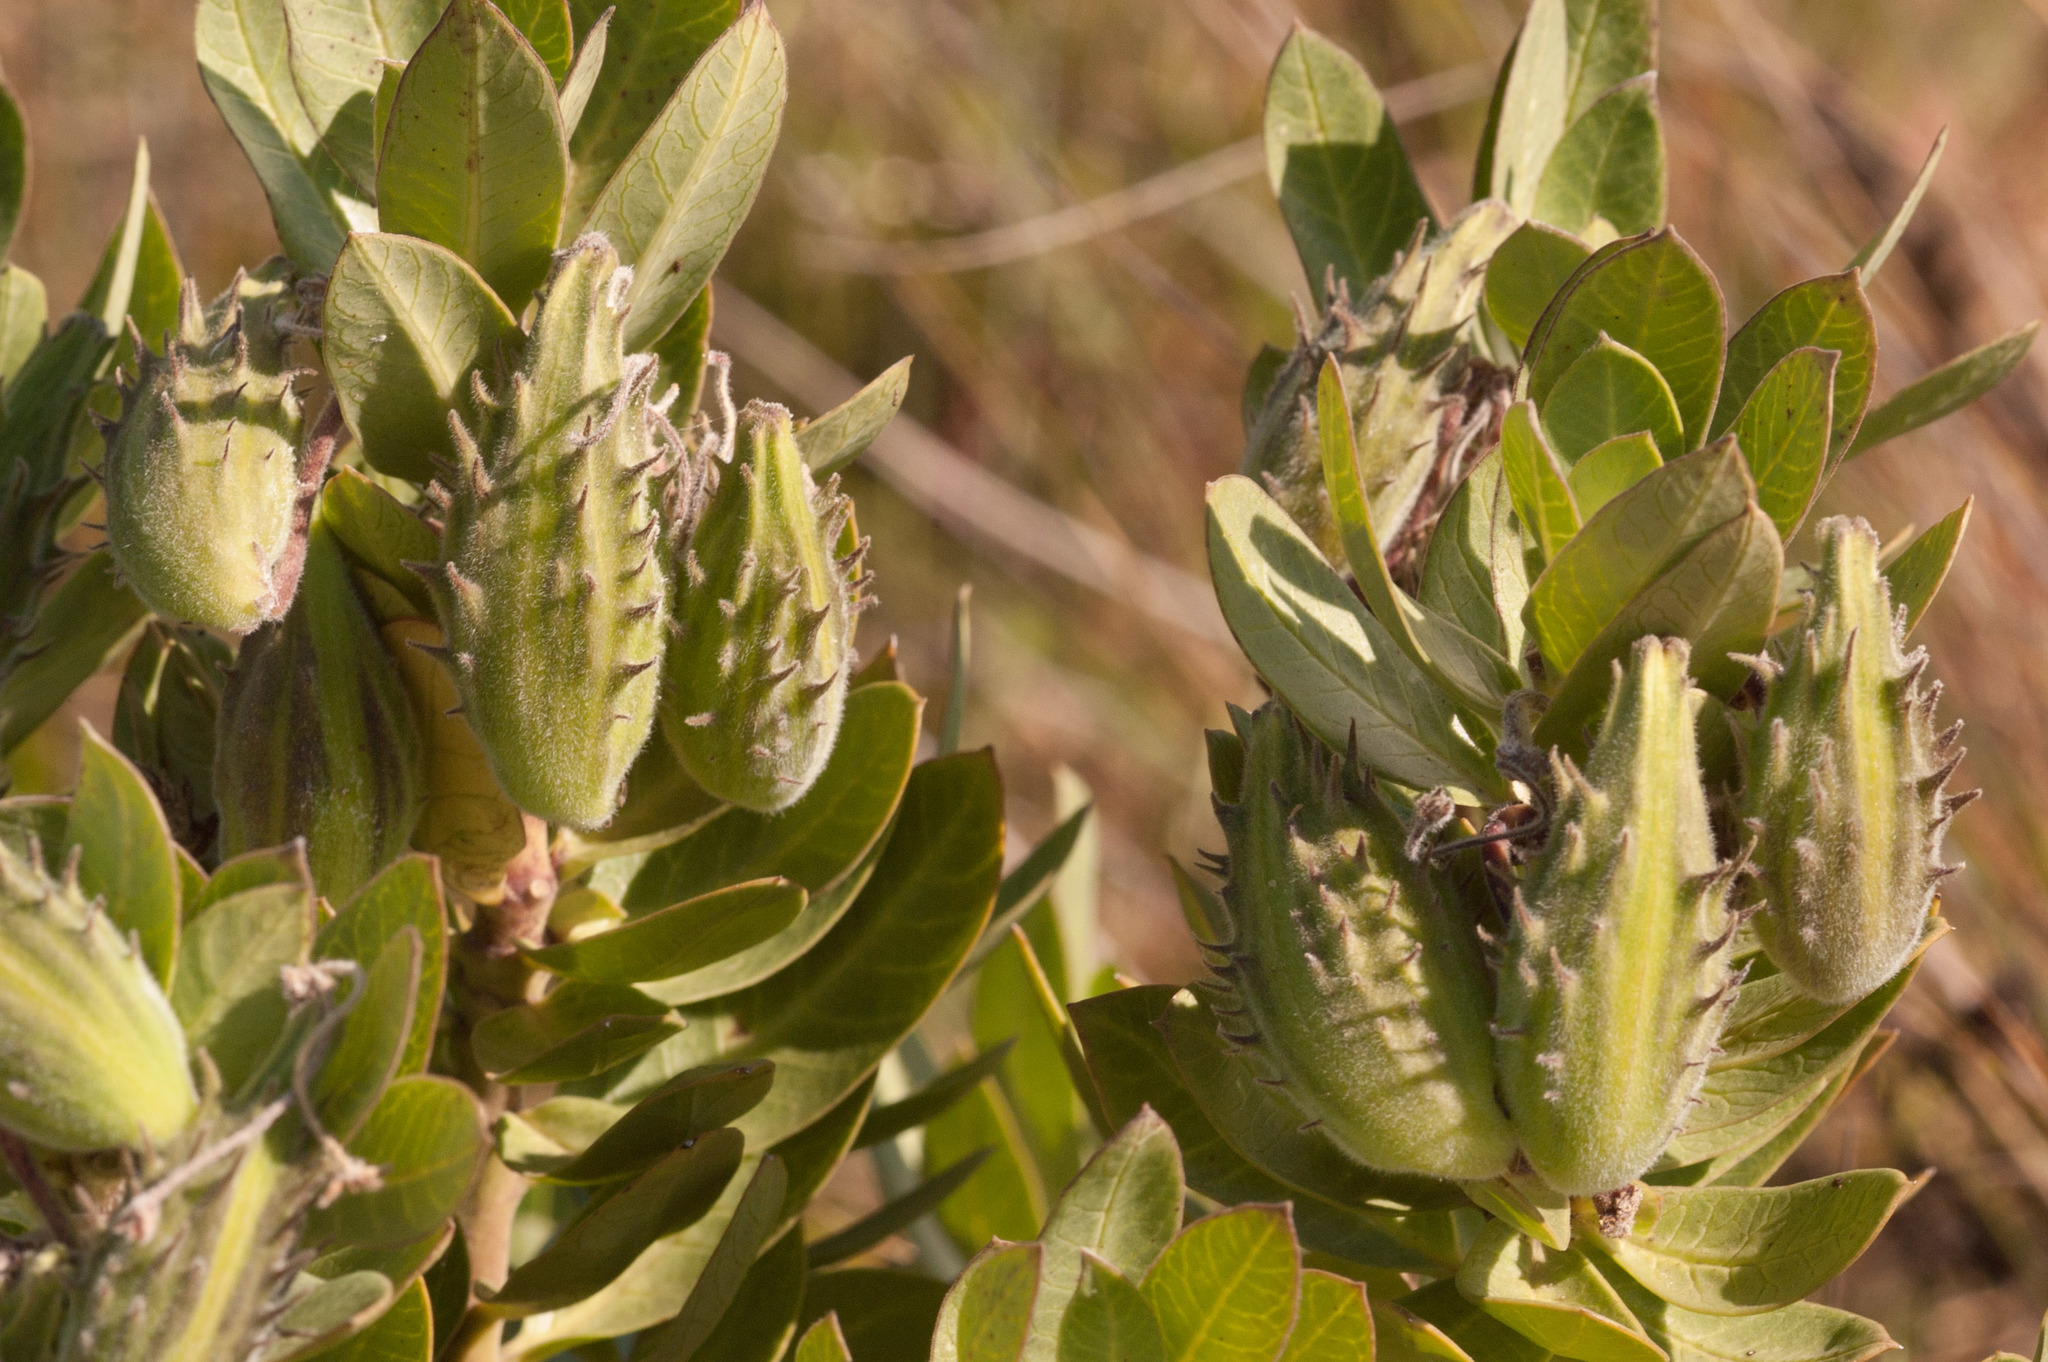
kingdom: Plantae
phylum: Tracheophyta
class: Magnoliopsida
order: Gentianales
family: Apocynaceae
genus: Gomphocarpus
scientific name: Gomphocarpus cancellatus
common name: Wild cotton
